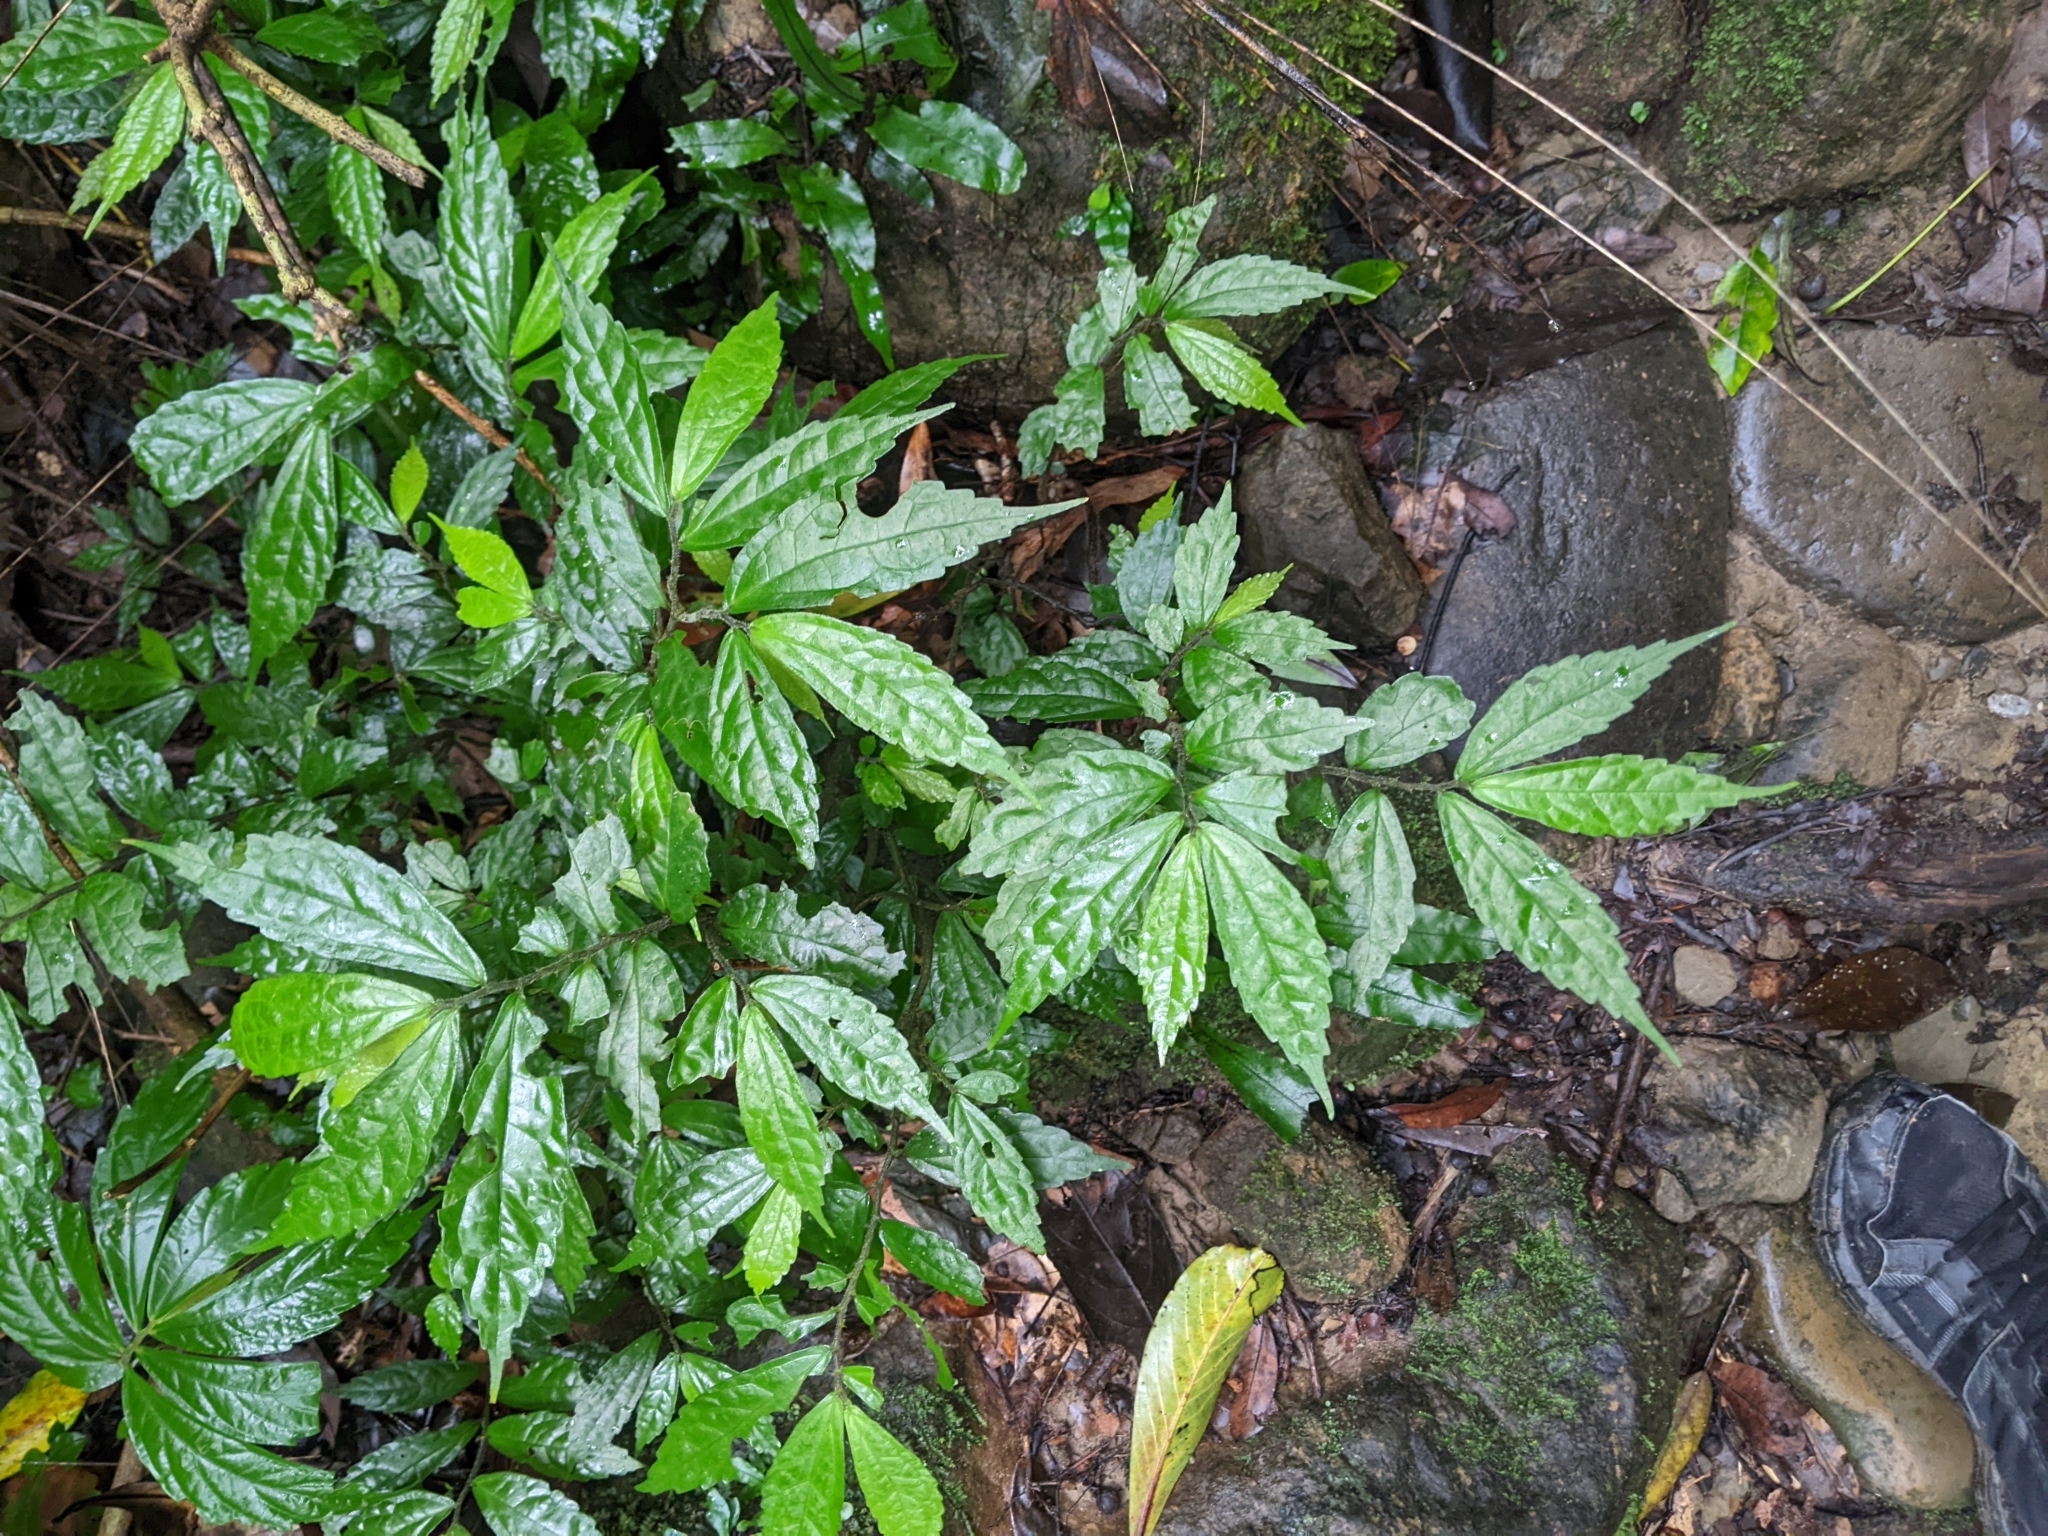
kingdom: Plantae
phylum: Tracheophyta
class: Magnoliopsida
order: Rosales
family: Urticaceae
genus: Elatostema
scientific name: Elatostema scabrum
